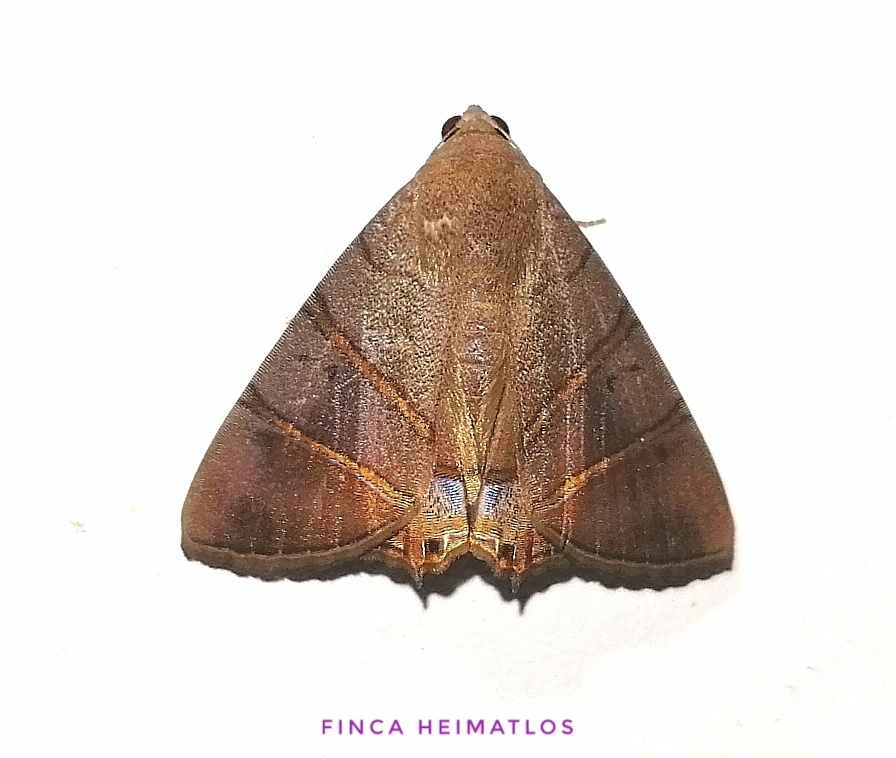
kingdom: Animalia
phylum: Arthropoda
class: Insecta
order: Lepidoptera
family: Erebidae
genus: Eulepidotis
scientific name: Eulepidotis addens
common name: Eulepidotis moth
